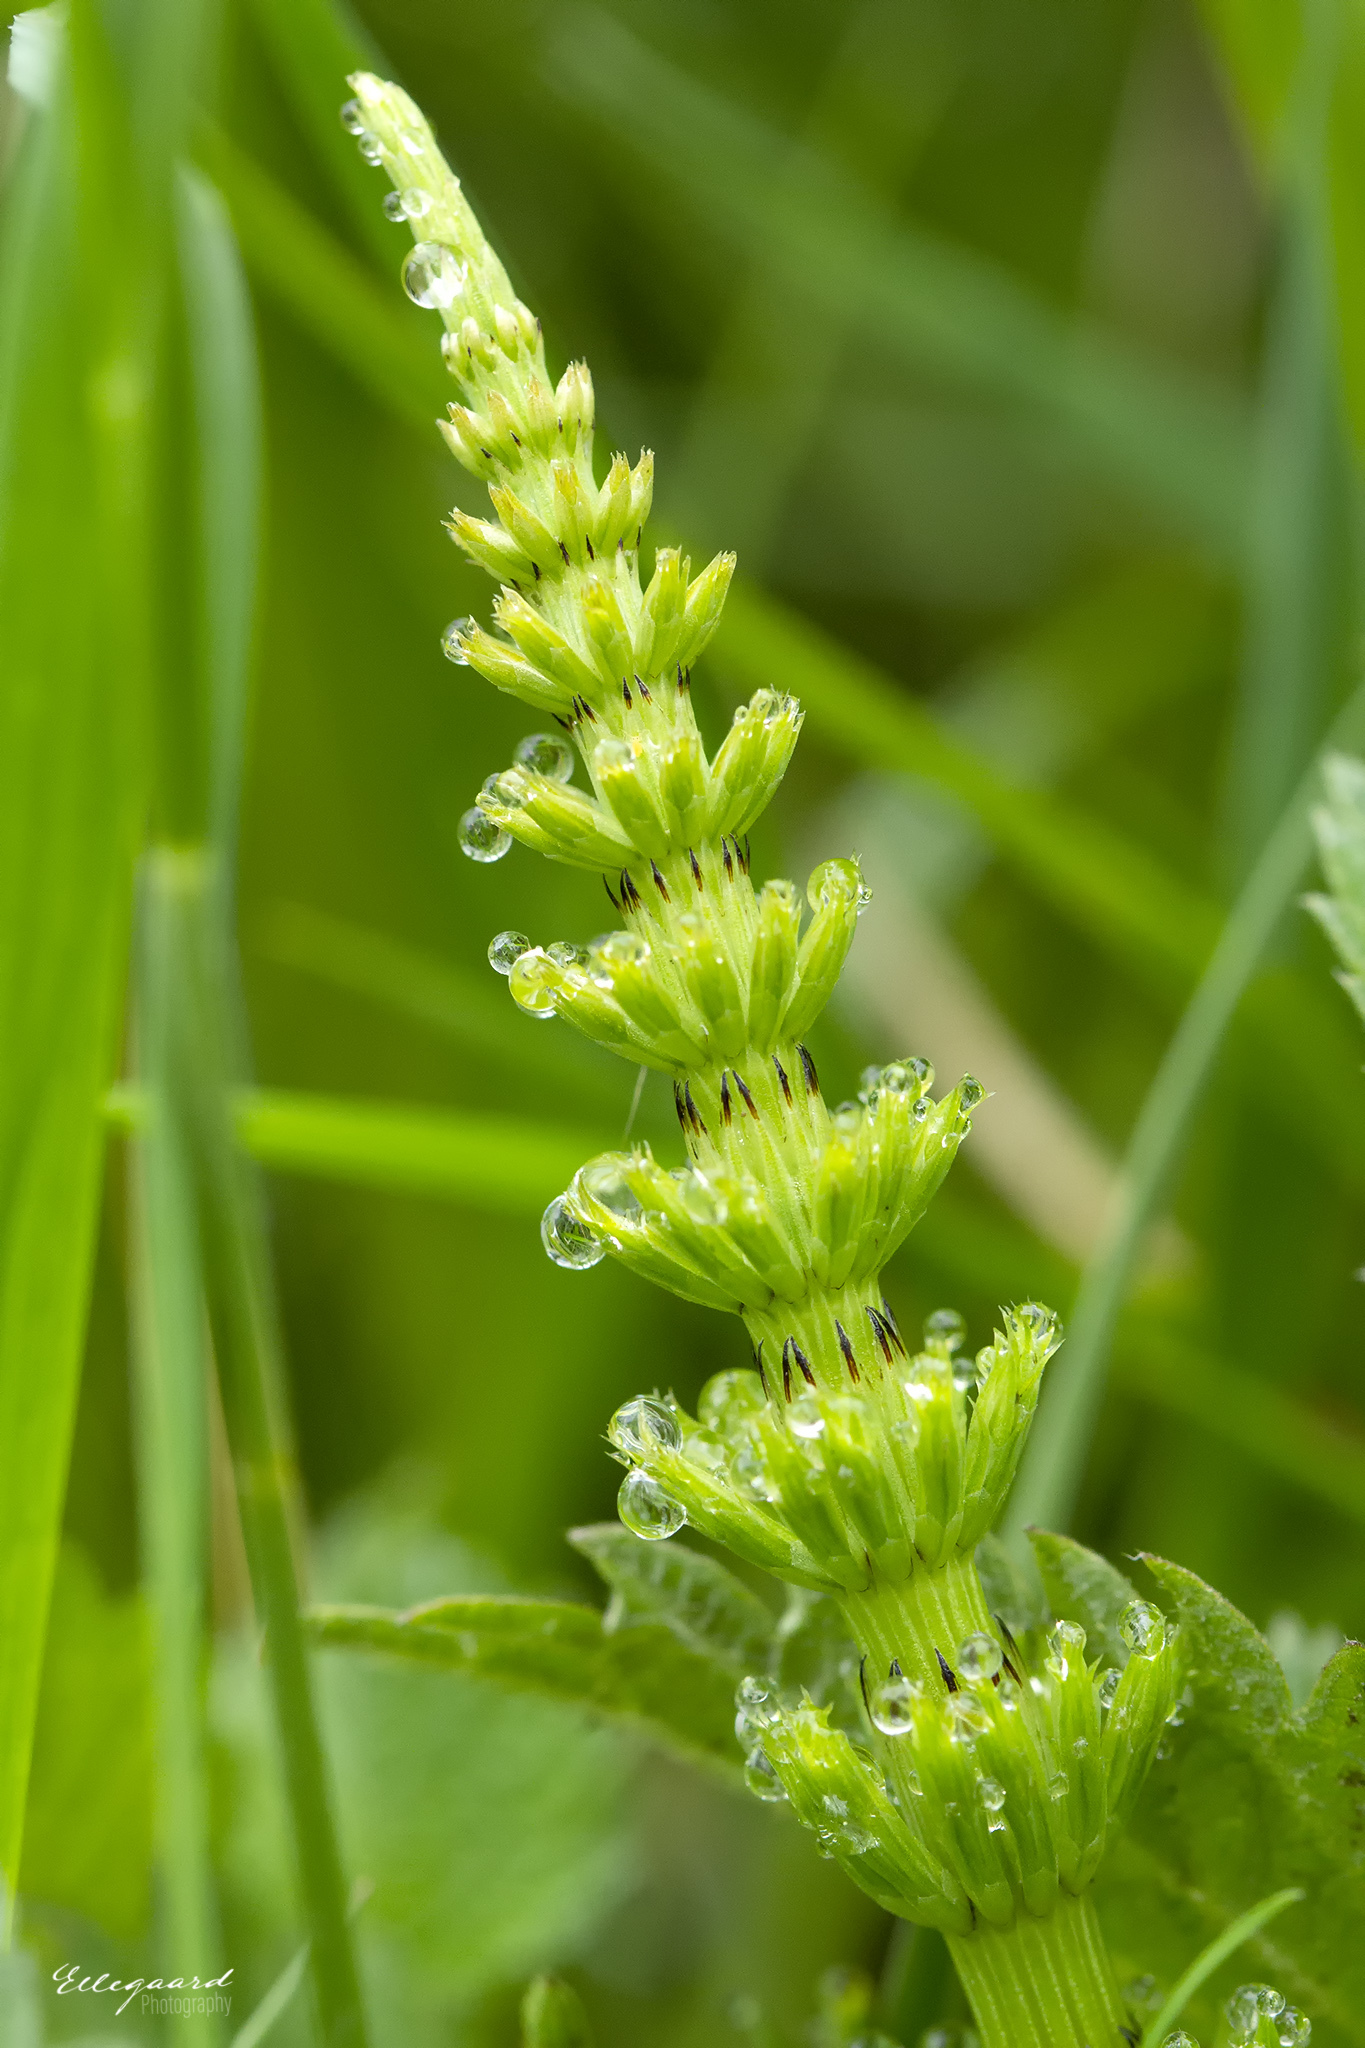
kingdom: Plantae
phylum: Tracheophyta
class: Polypodiopsida
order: Equisetales
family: Equisetaceae
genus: Equisetum
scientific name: Equisetum arvense
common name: Field horsetail
